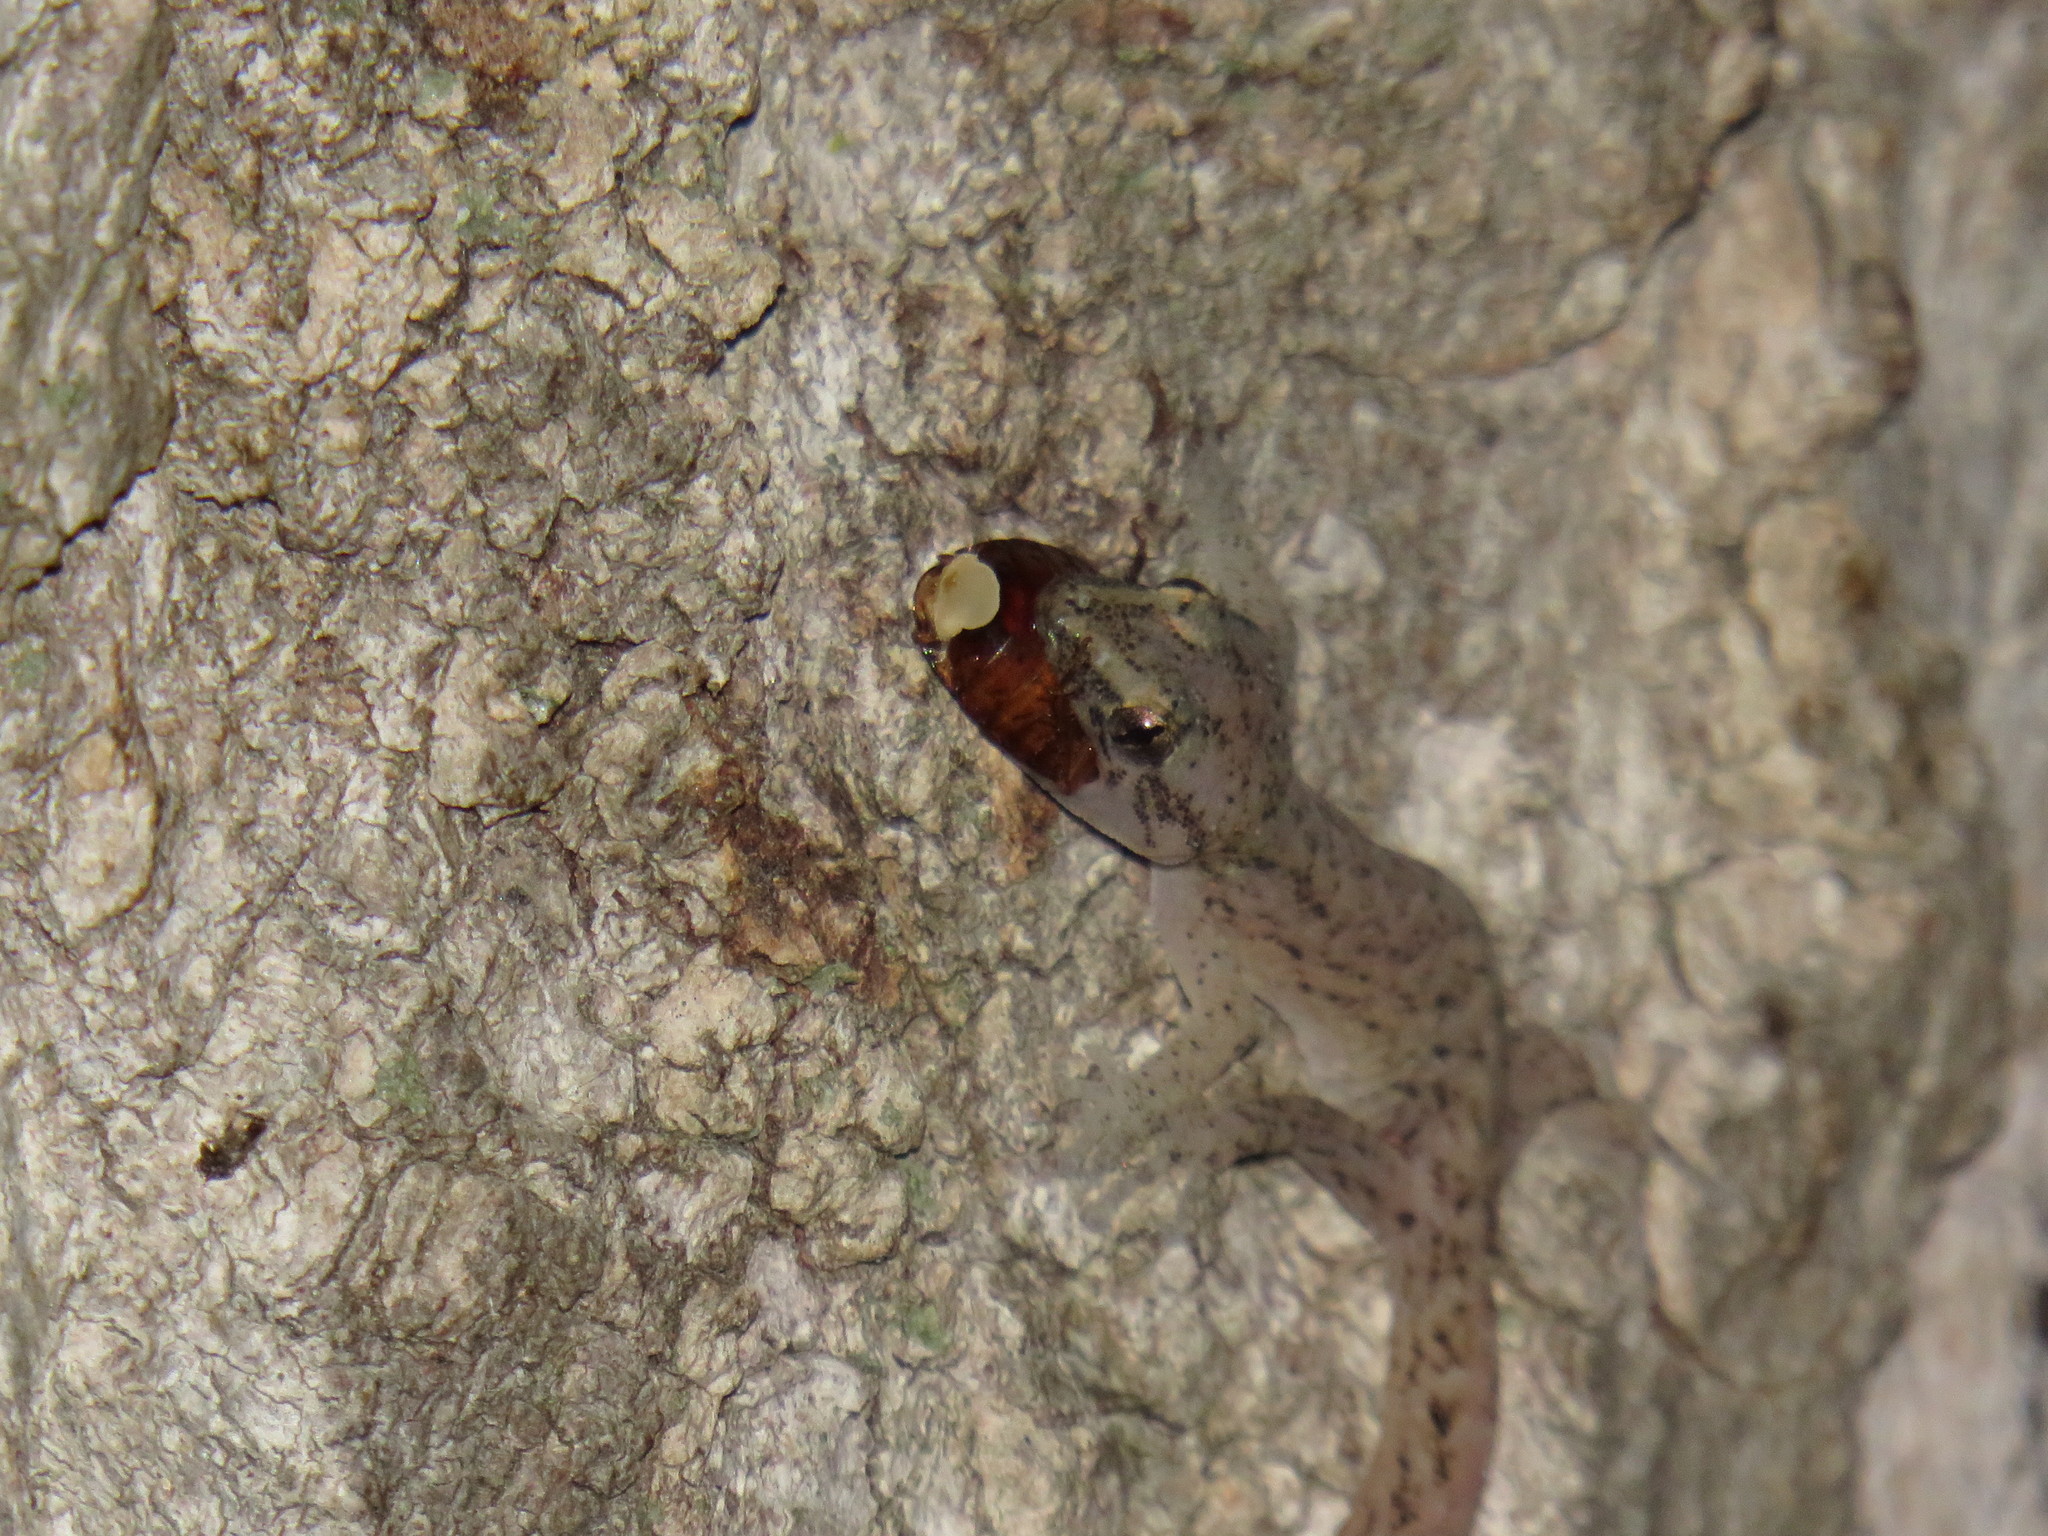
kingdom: Animalia
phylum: Chordata
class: Squamata
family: Gekkonidae
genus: Afrogecko
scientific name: Afrogecko porphyreus
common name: Marbled leaf-toed gecko
